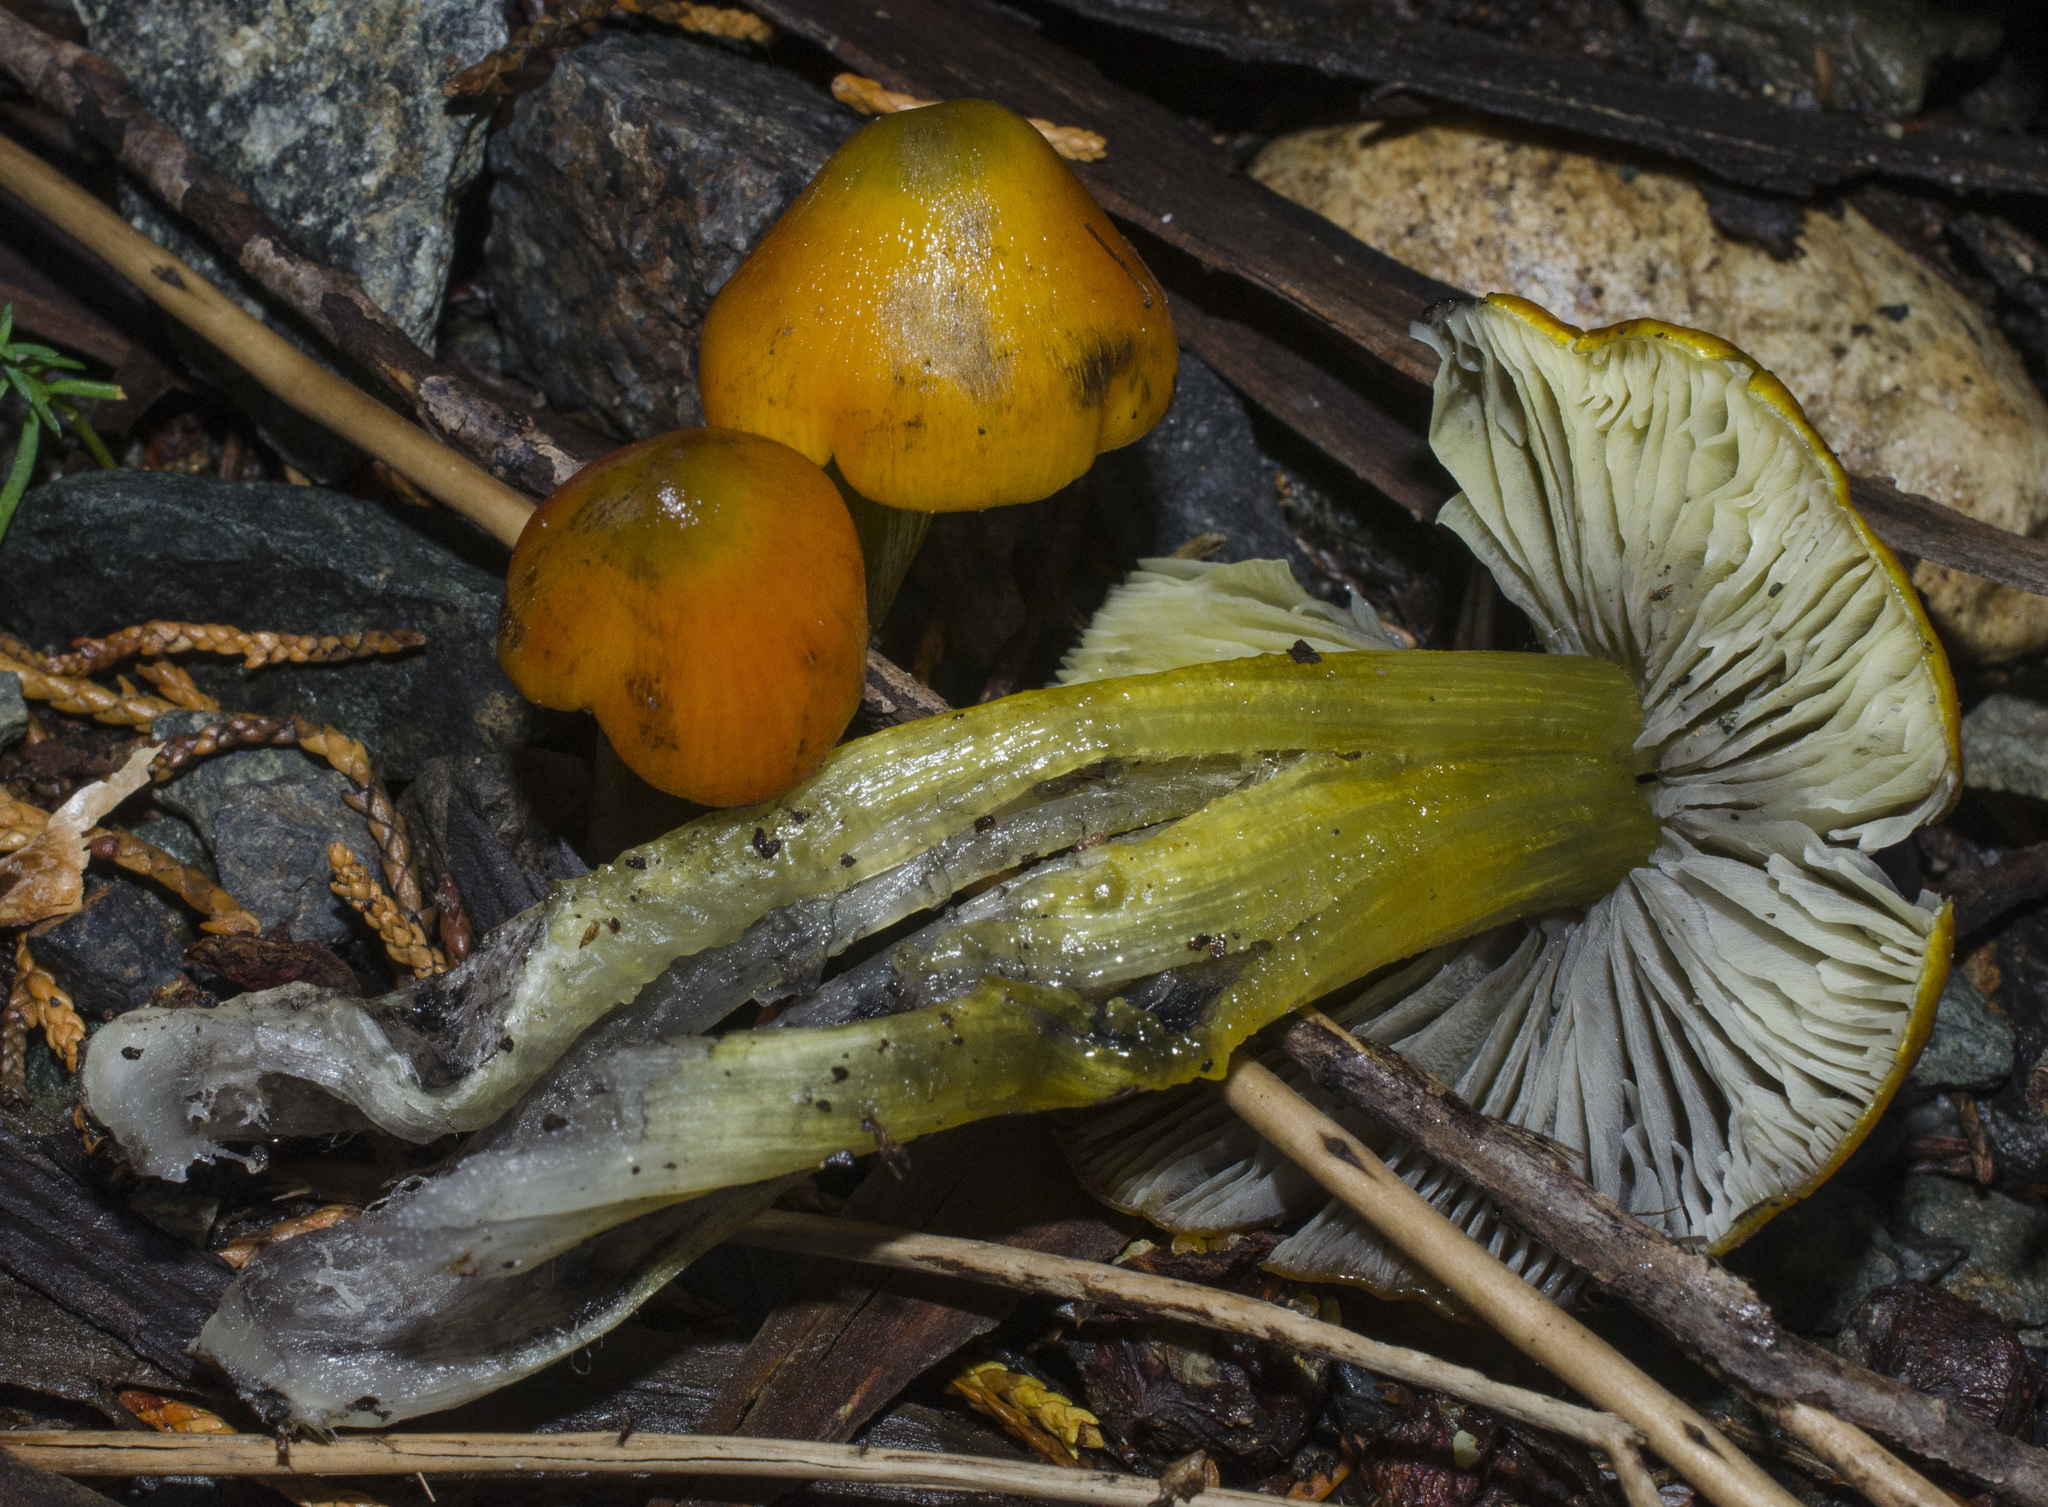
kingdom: Fungi
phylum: Basidiomycota
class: Agaricomycetes
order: Agaricales
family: Hygrophoraceae
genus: Hygrocybe
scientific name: Hygrocybe singeri
